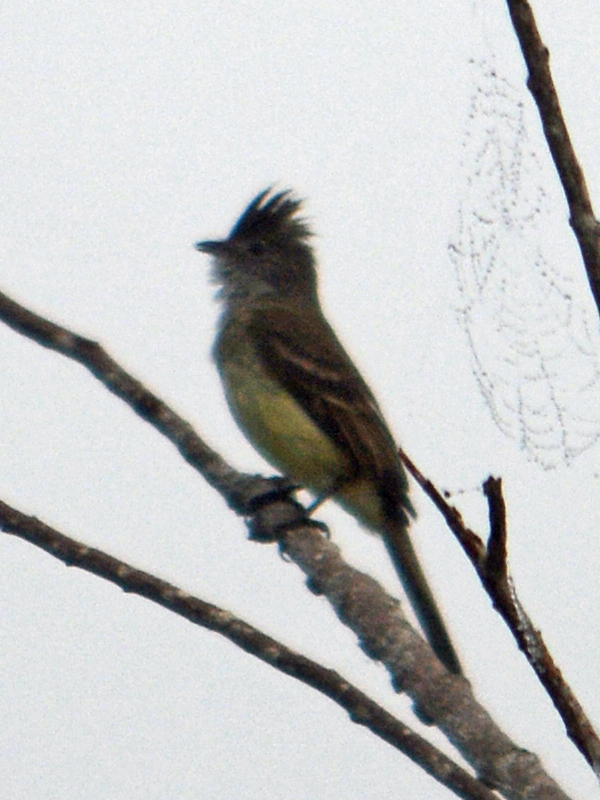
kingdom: Animalia
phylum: Chordata
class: Aves
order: Passeriformes
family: Tyrannidae
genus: Elaenia
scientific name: Elaenia flavogaster
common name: Yellow-bellied elaenia
